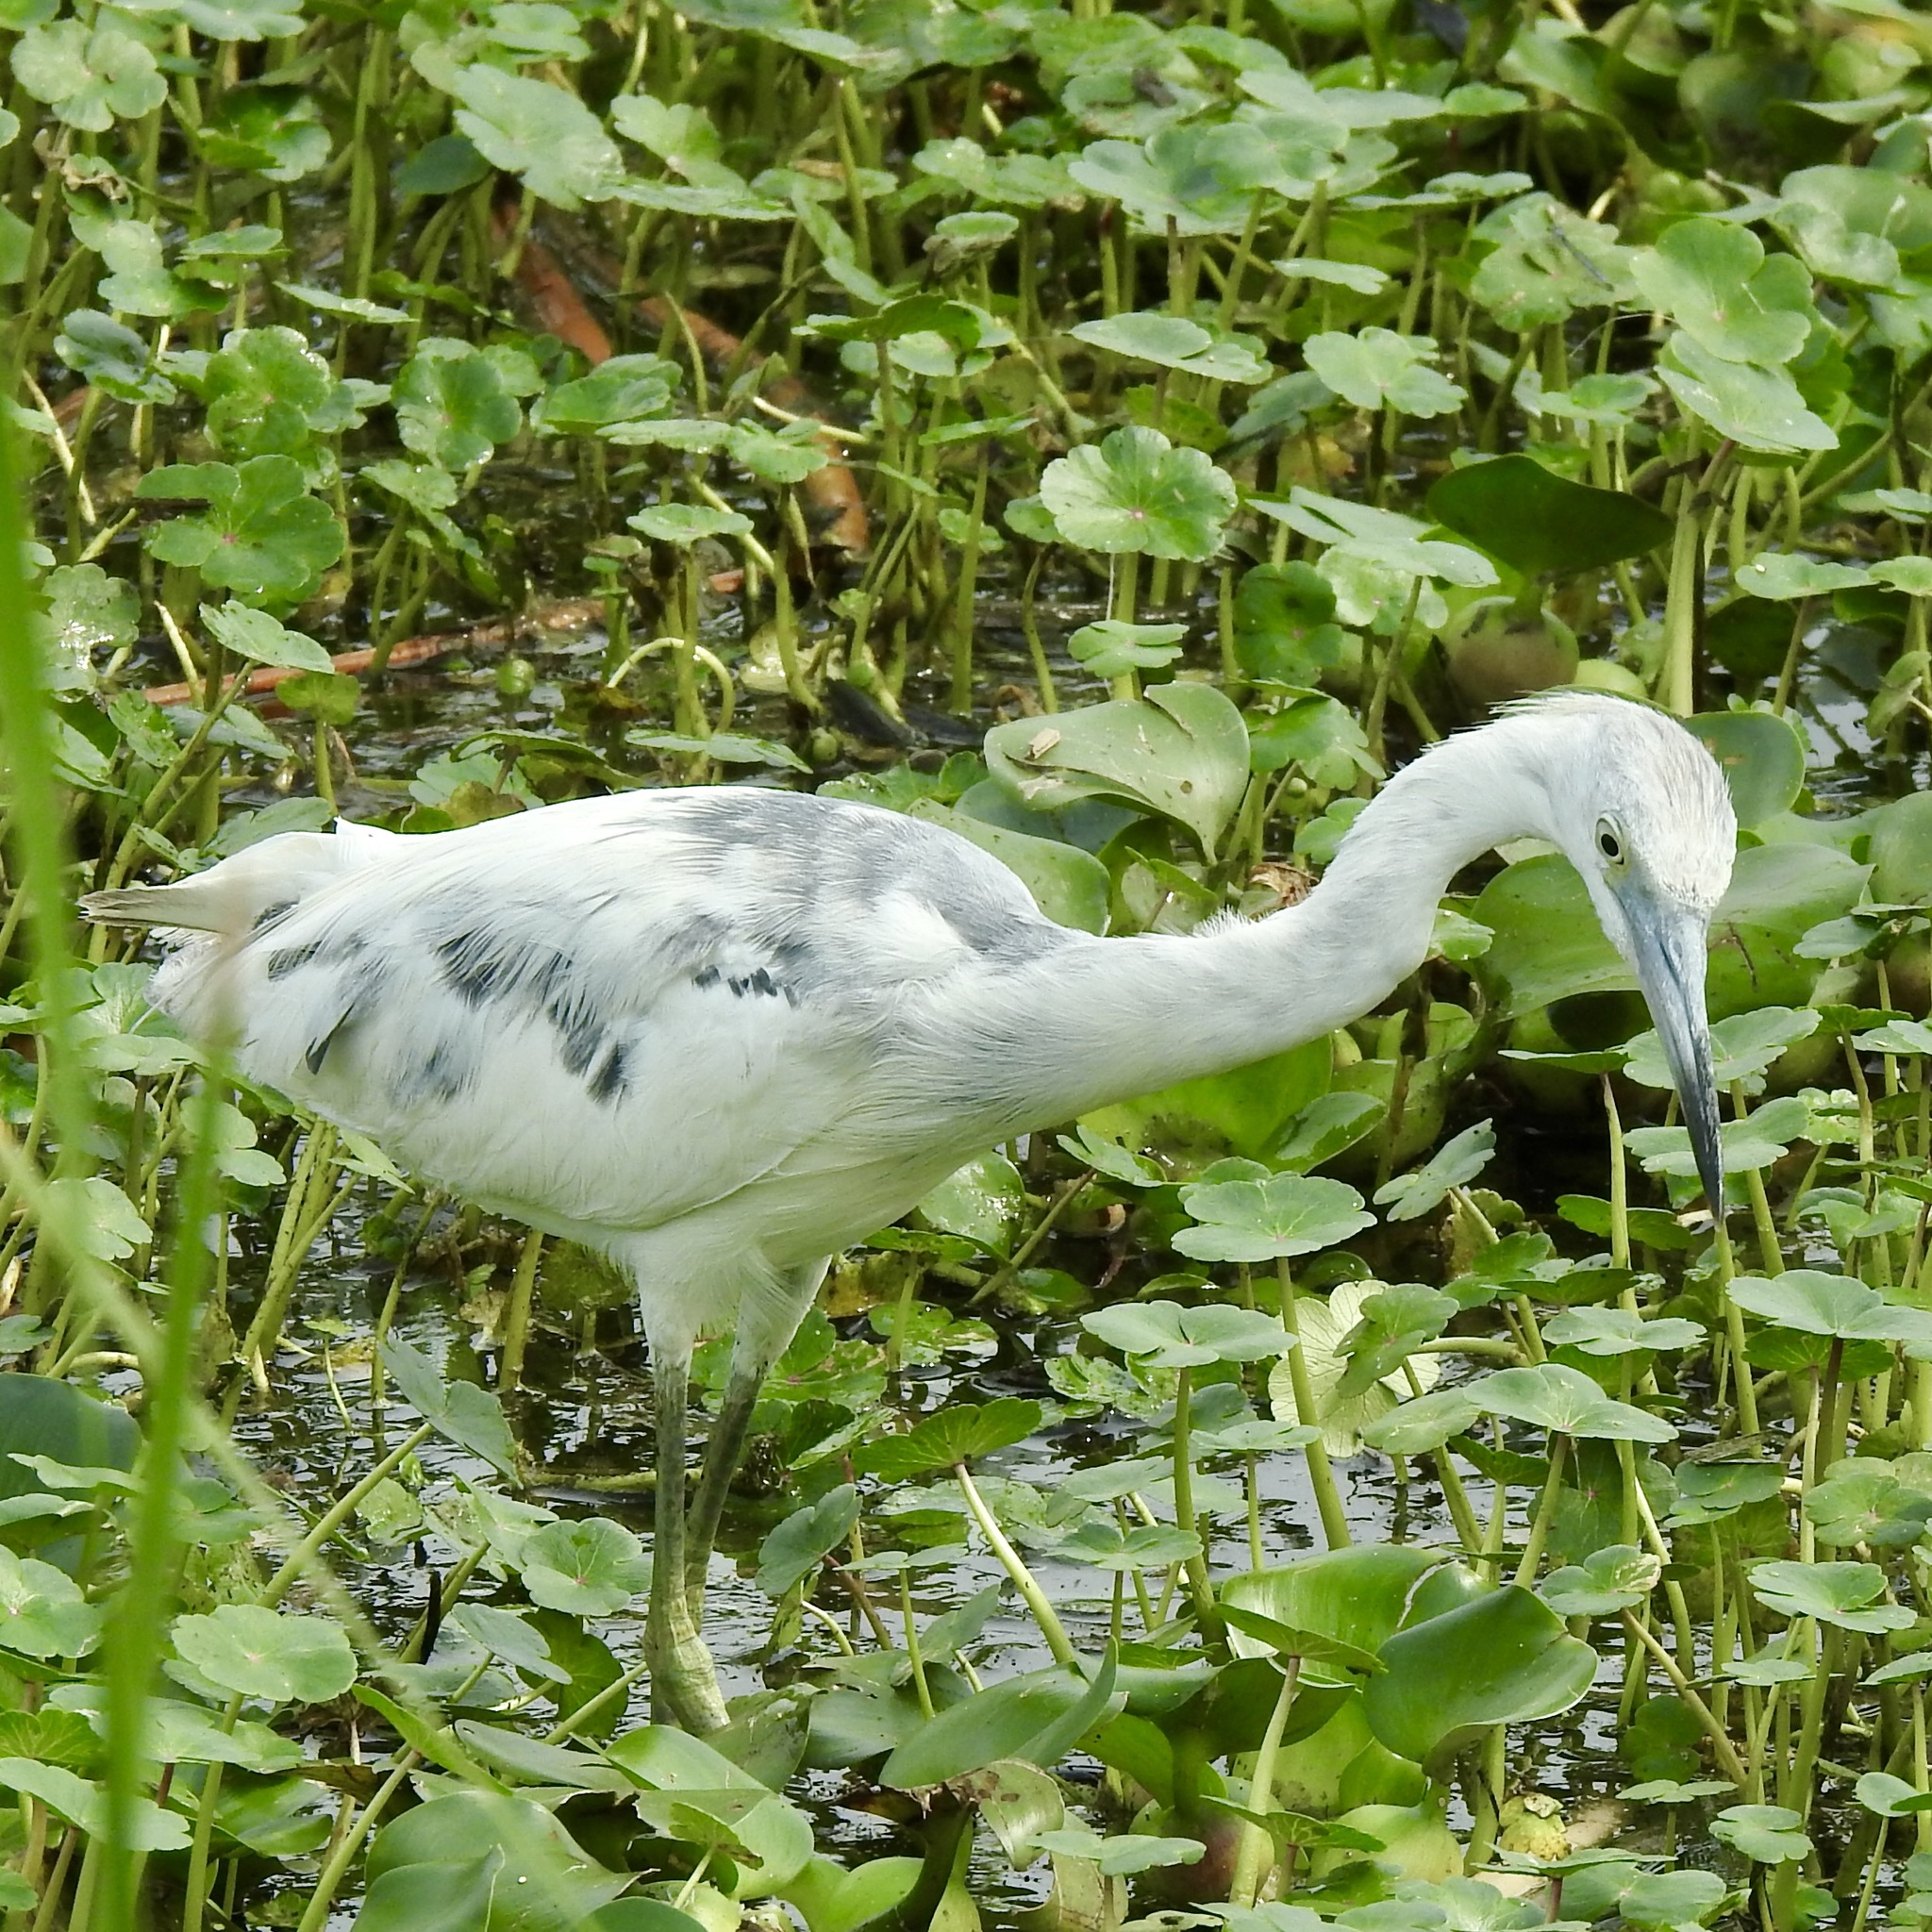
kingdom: Animalia
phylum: Chordata
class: Aves
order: Pelecaniformes
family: Ardeidae
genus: Egretta
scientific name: Egretta caerulea
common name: Little blue heron
